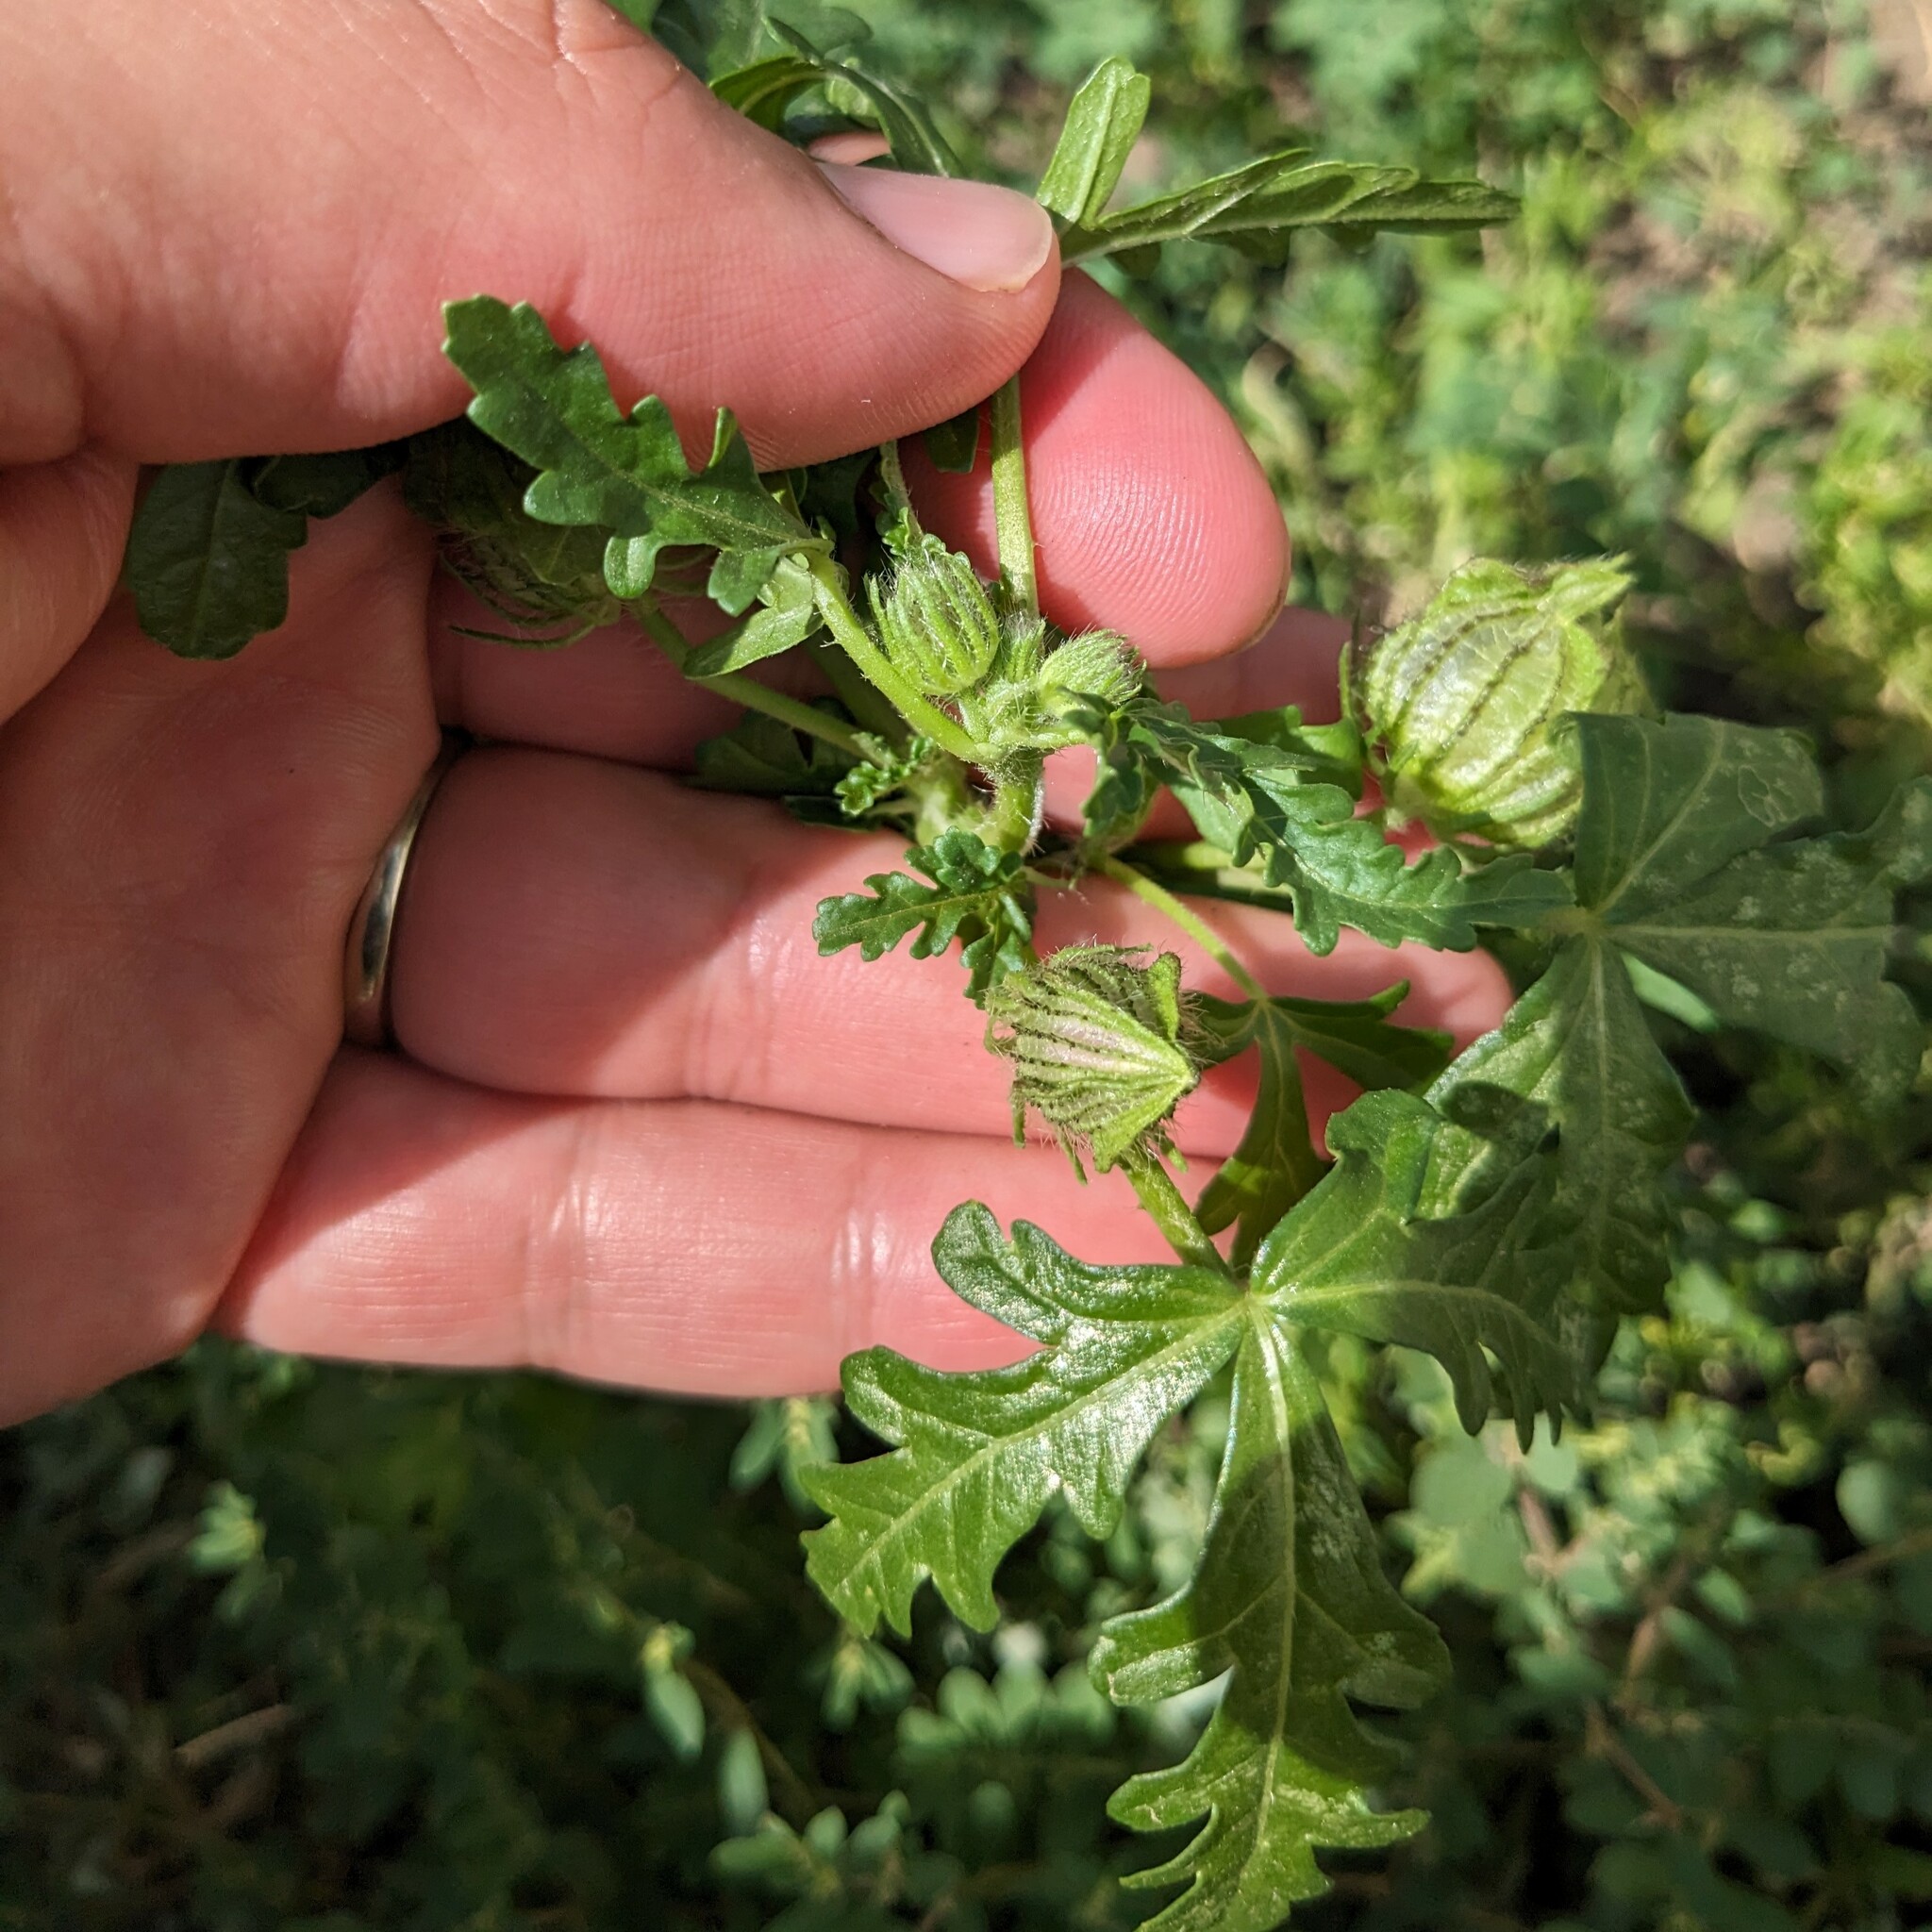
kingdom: Plantae
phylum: Tracheophyta
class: Magnoliopsida
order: Malvales
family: Malvaceae
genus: Hibiscus
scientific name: Hibiscus trionum
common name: Bladder ketmia
